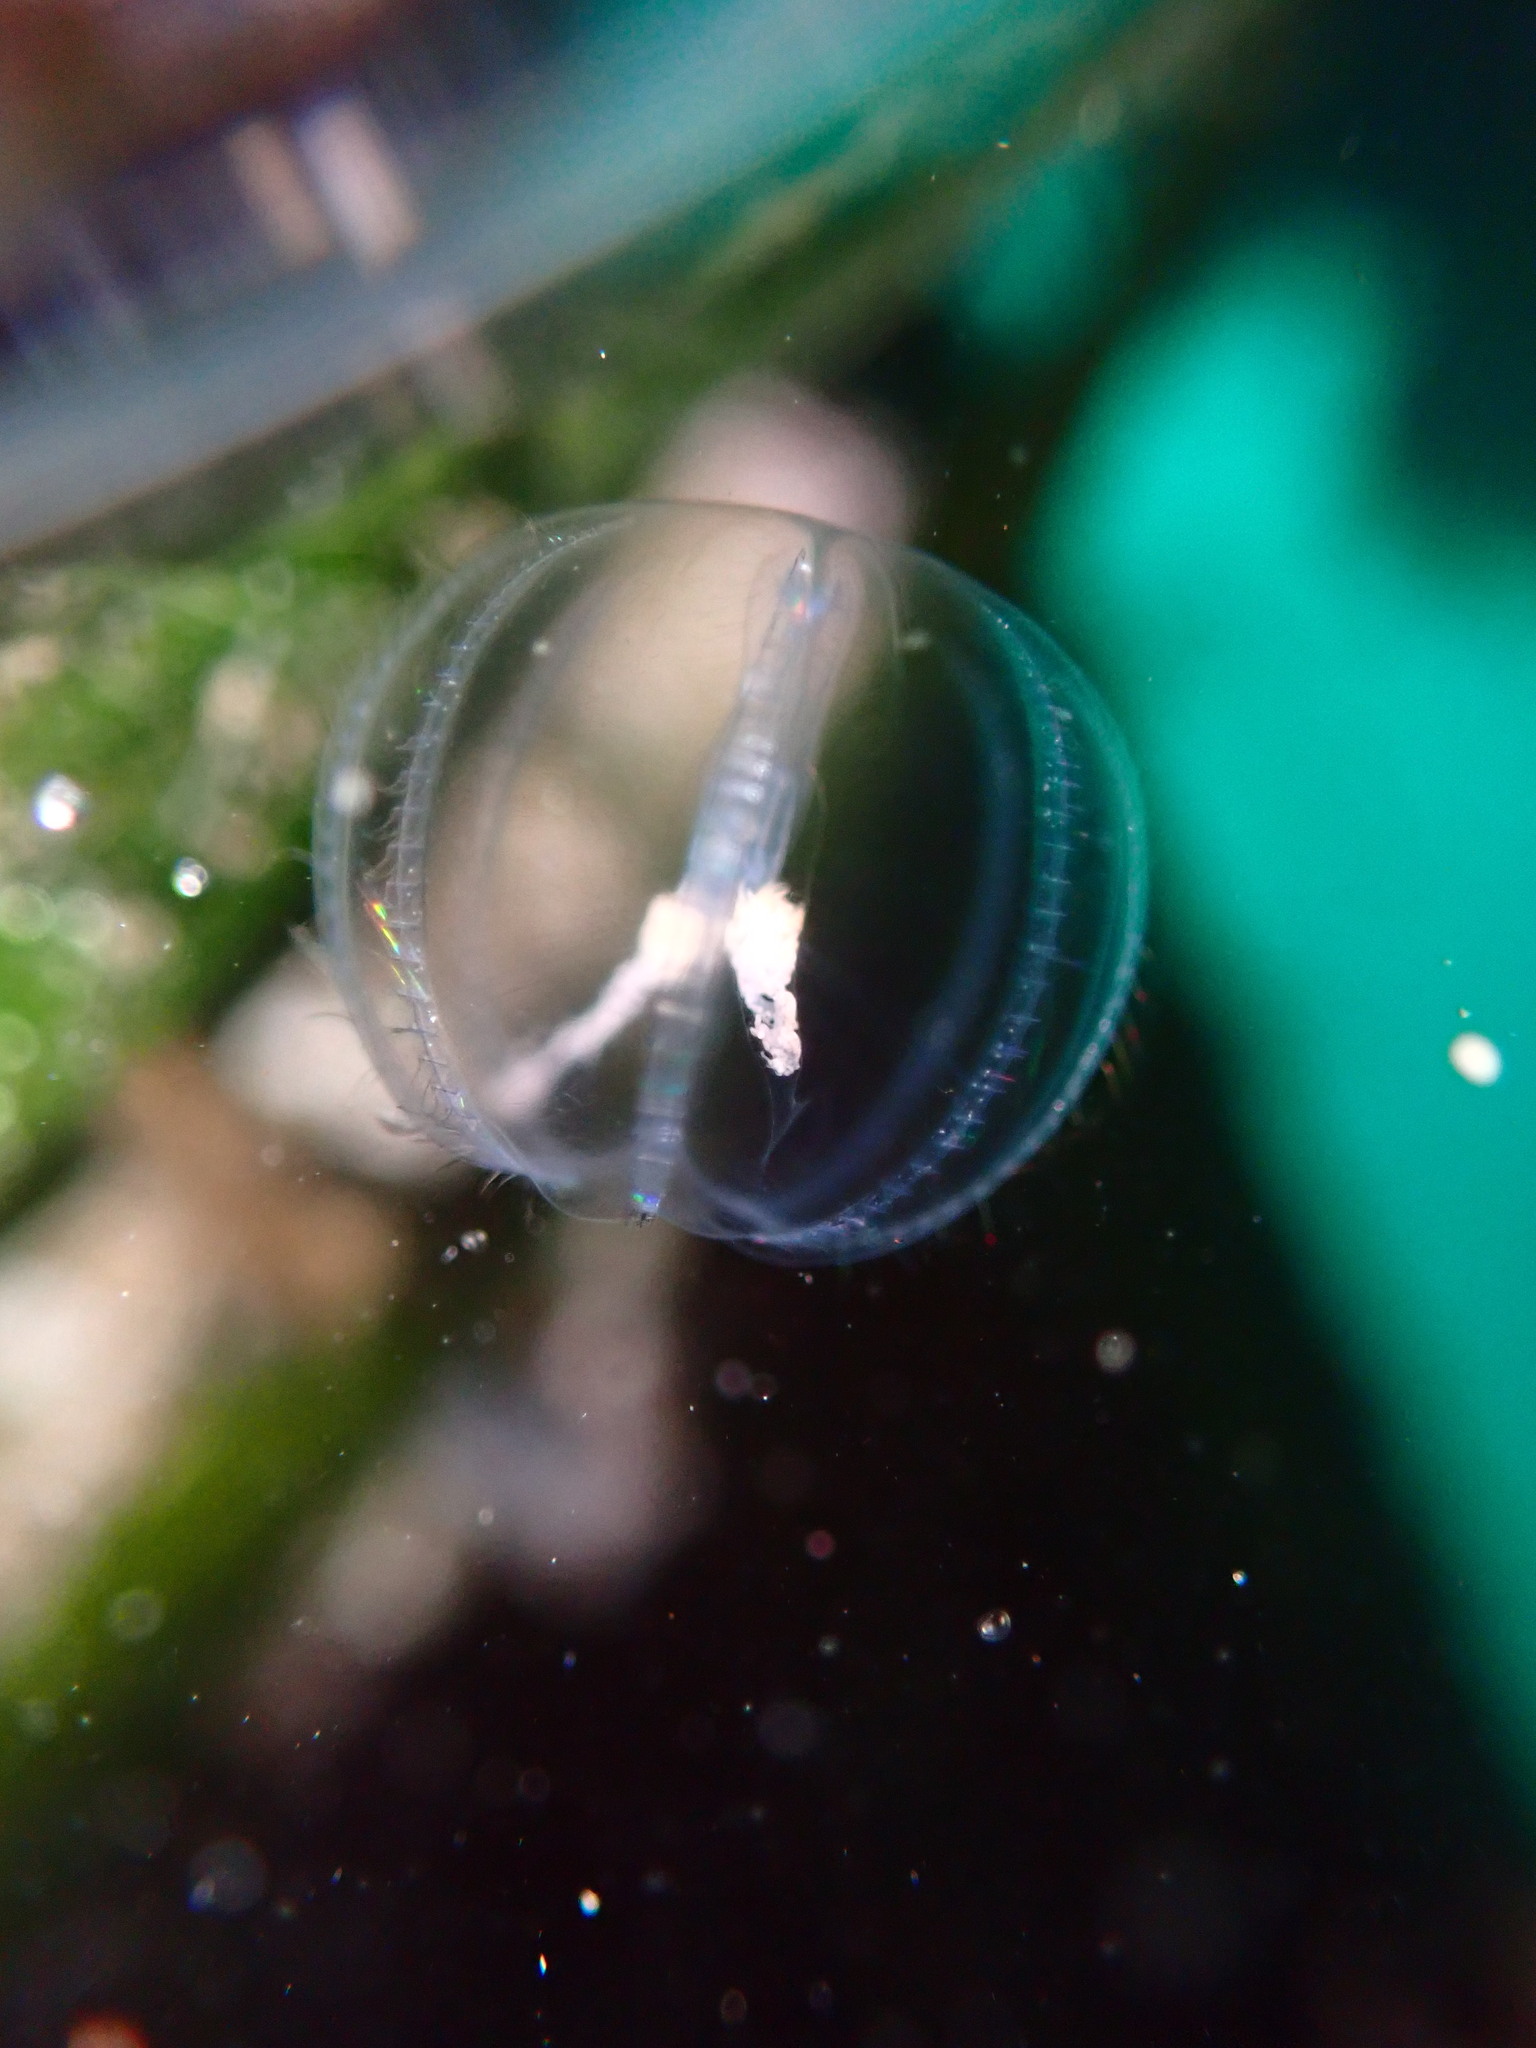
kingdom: Animalia
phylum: Ctenophora
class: Tentaculata
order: Cydippida
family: Pleurobrachiidae
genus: Pleurobrachia
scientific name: Pleurobrachia bachei
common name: Pacific sea gooseberry
